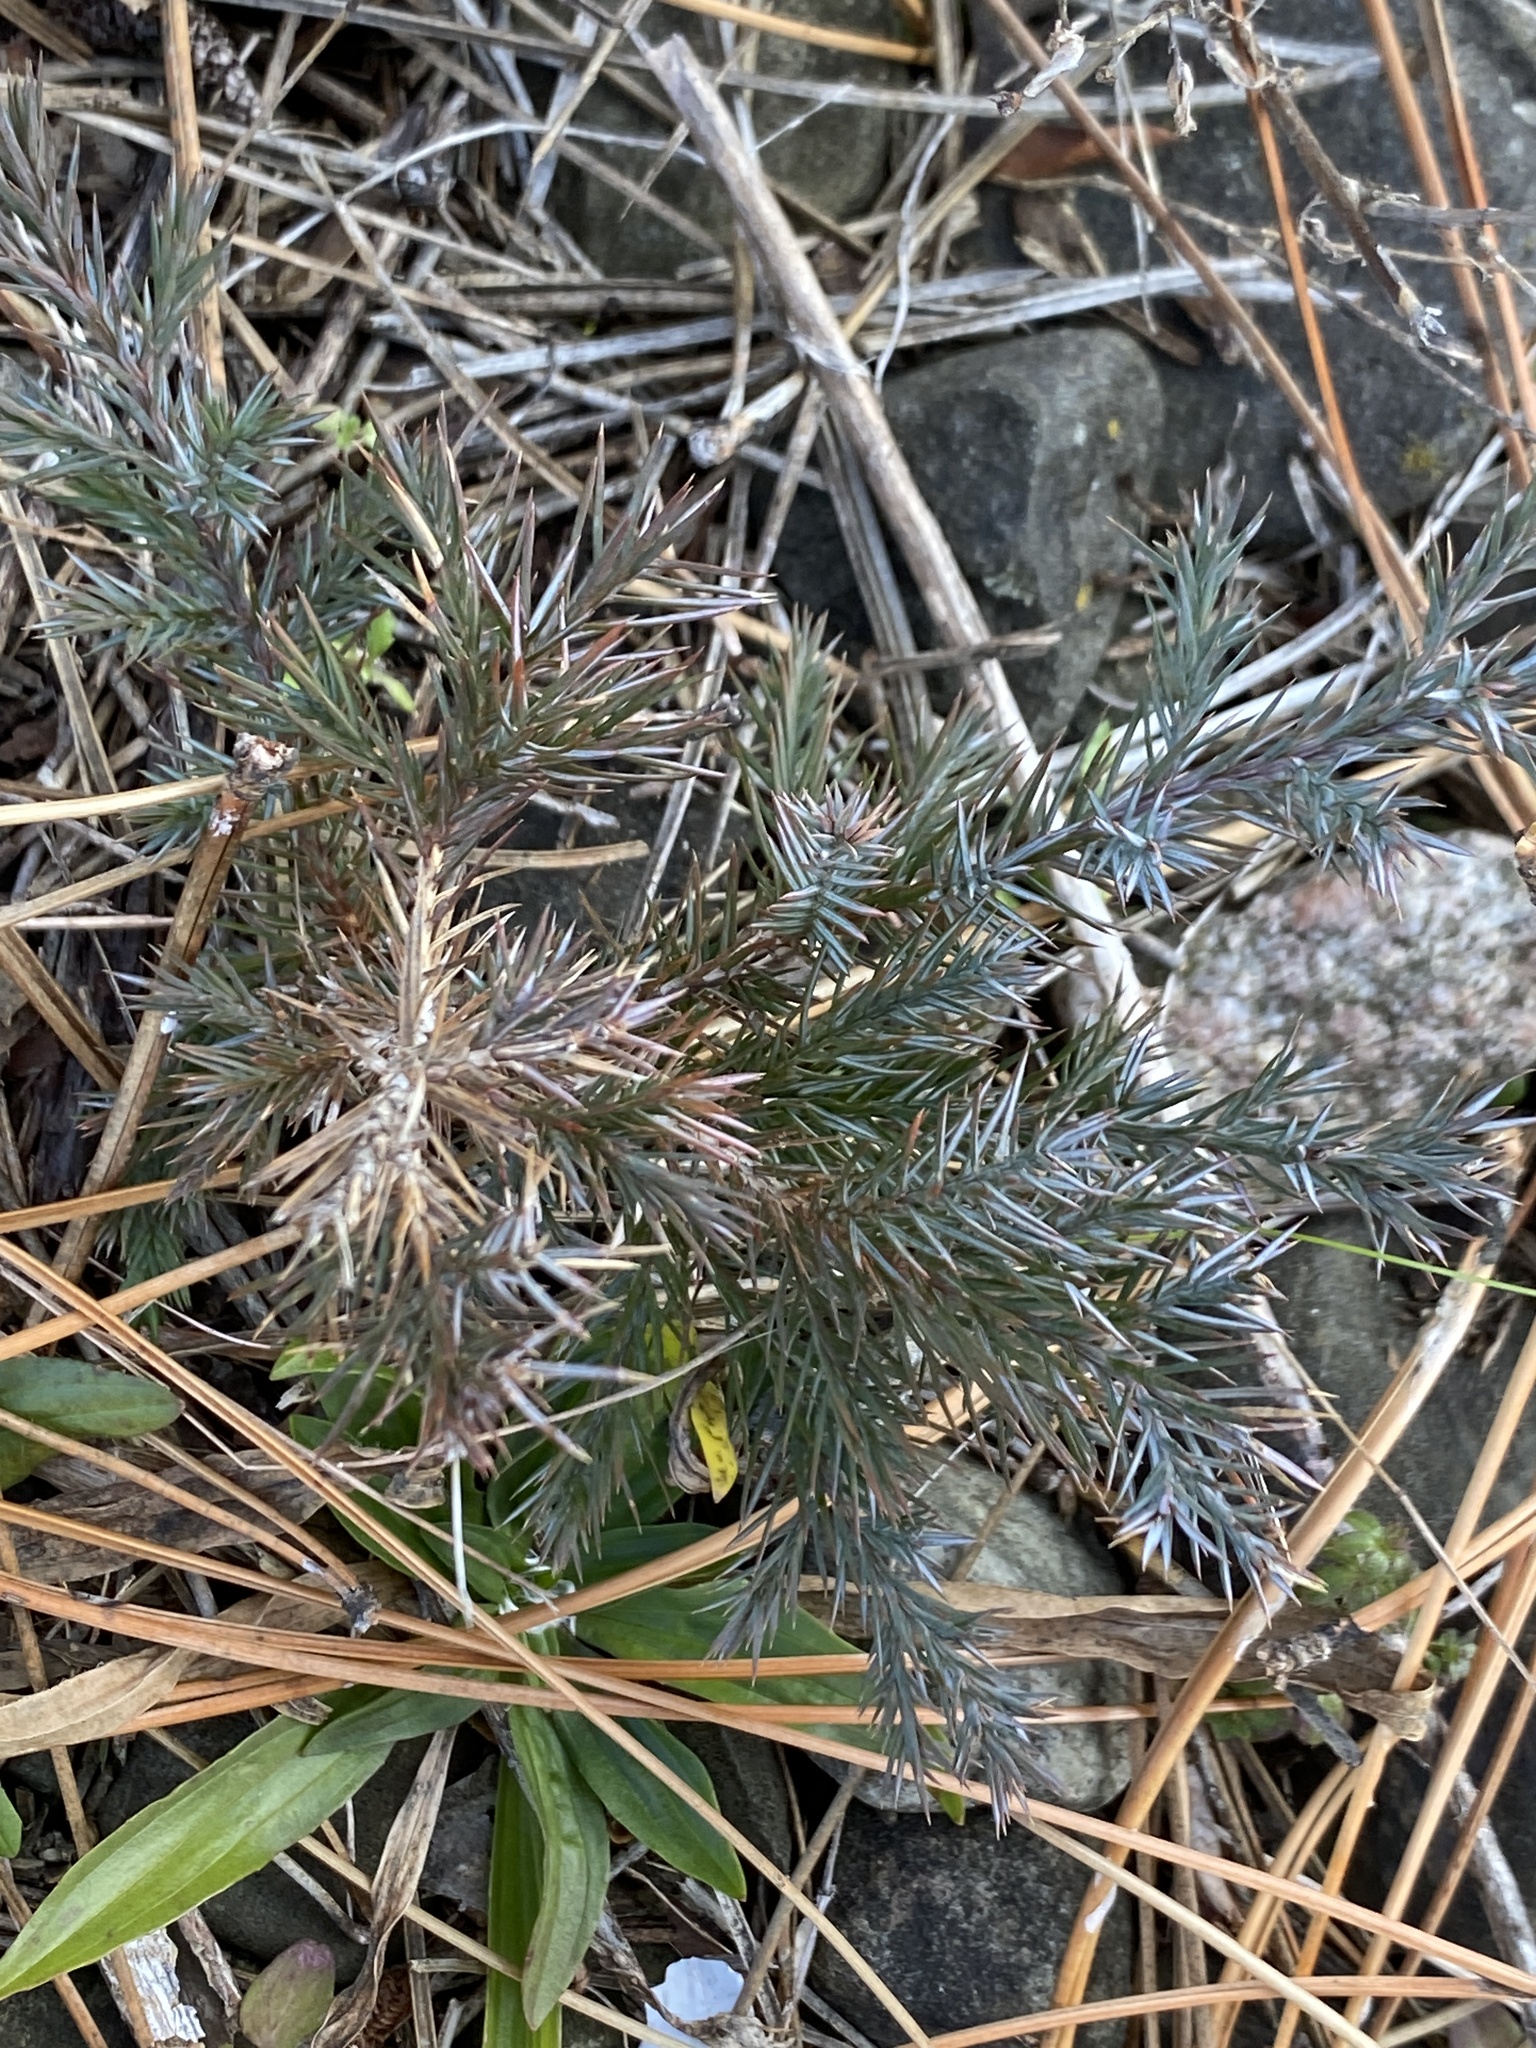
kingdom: Plantae
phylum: Tracheophyta
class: Pinopsida
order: Pinales
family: Cupressaceae
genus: Juniperus
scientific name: Juniperus virginiana
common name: Red juniper
